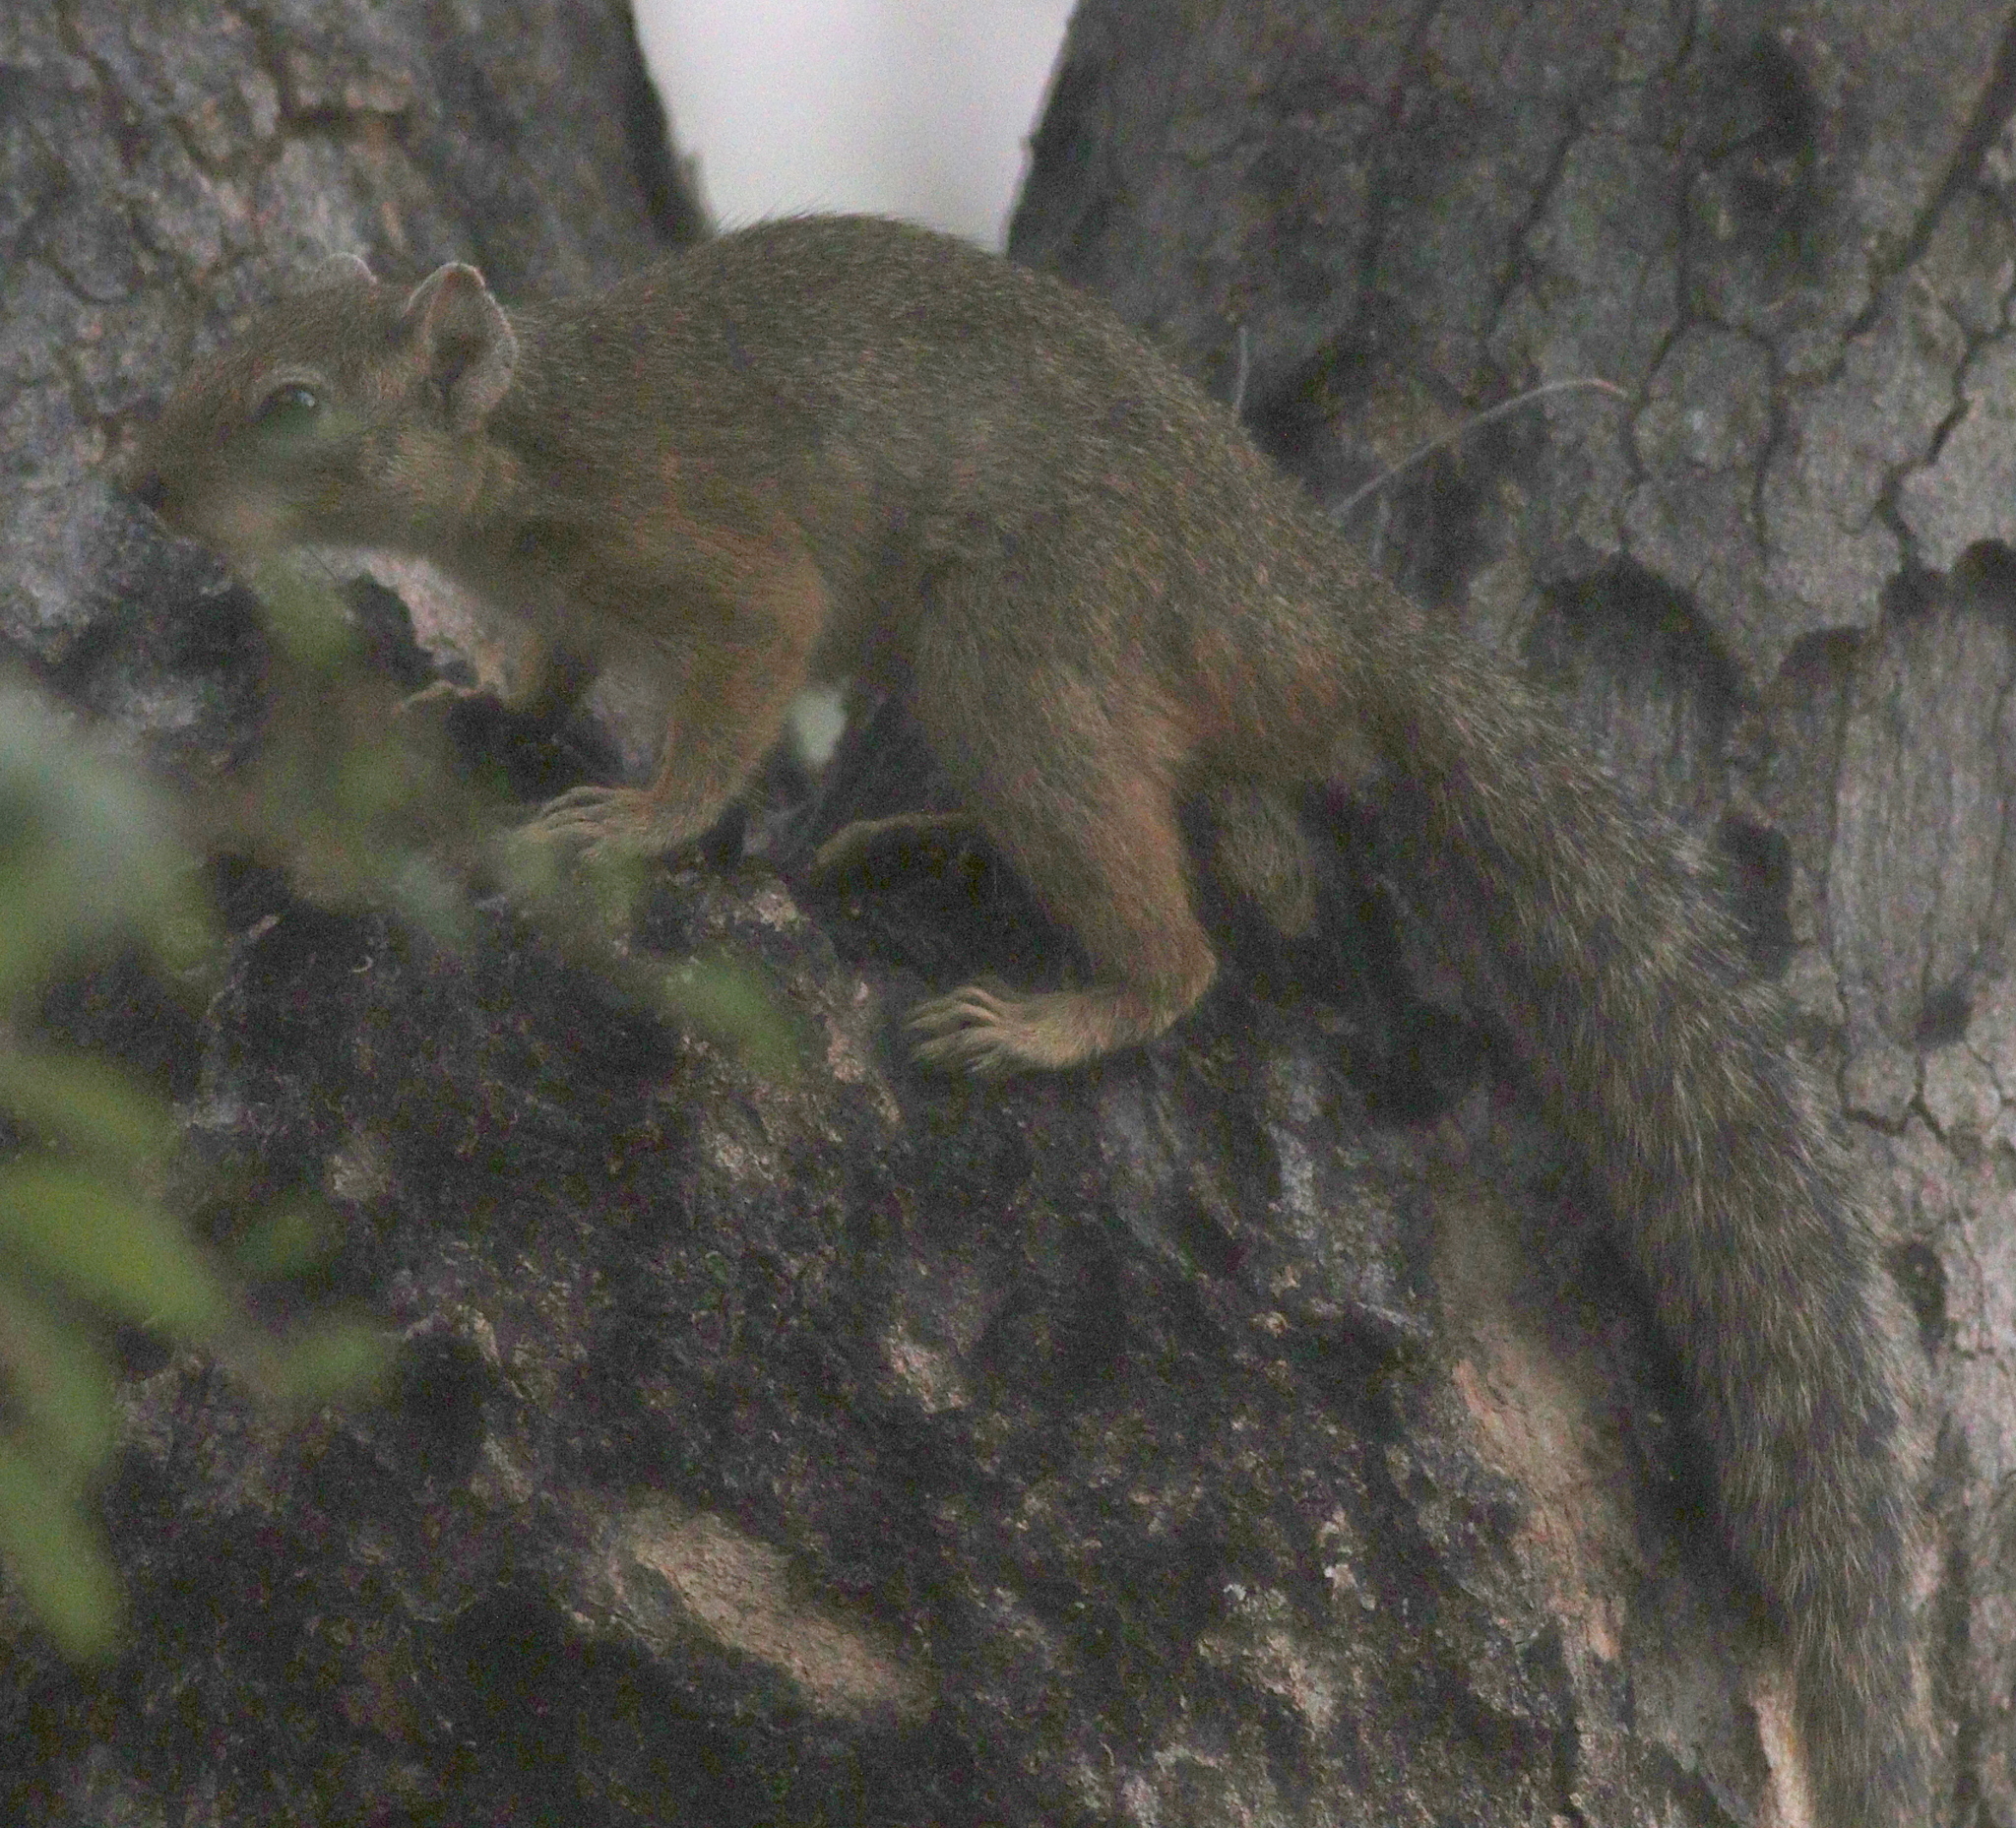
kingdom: Animalia
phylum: Chordata
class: Mammalia
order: Rodentia
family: Sciuridae
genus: Paraxerus
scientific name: Paraxerus cepapi
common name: Smith's bush squirrel
